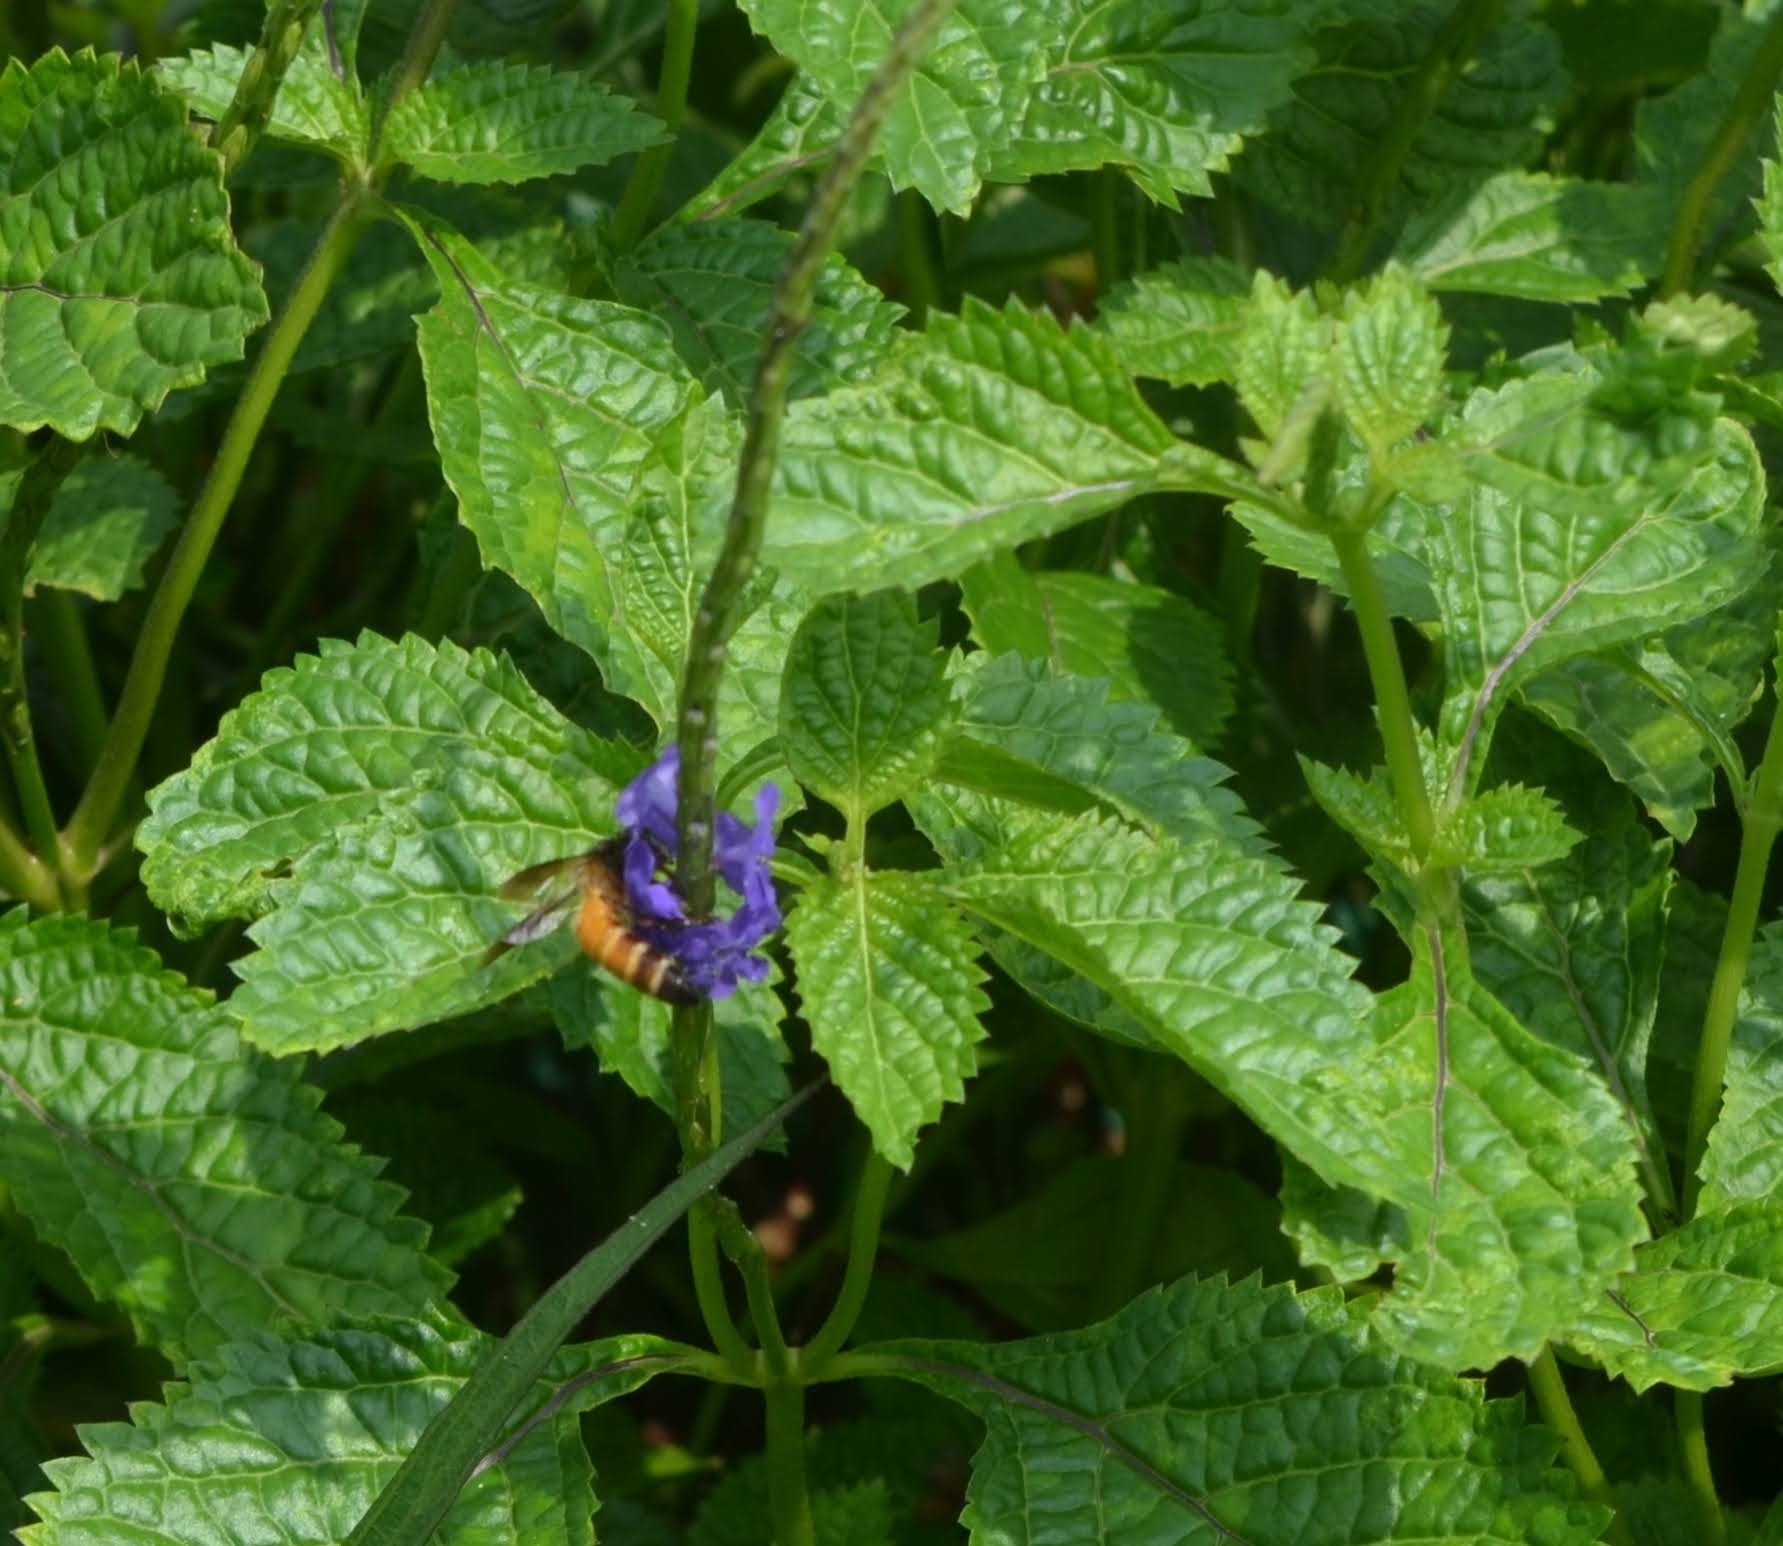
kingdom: Animalia
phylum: Arthropoda
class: Insecta
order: Hymenoptera
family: Apidae
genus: Apis
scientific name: Apis dorsata
